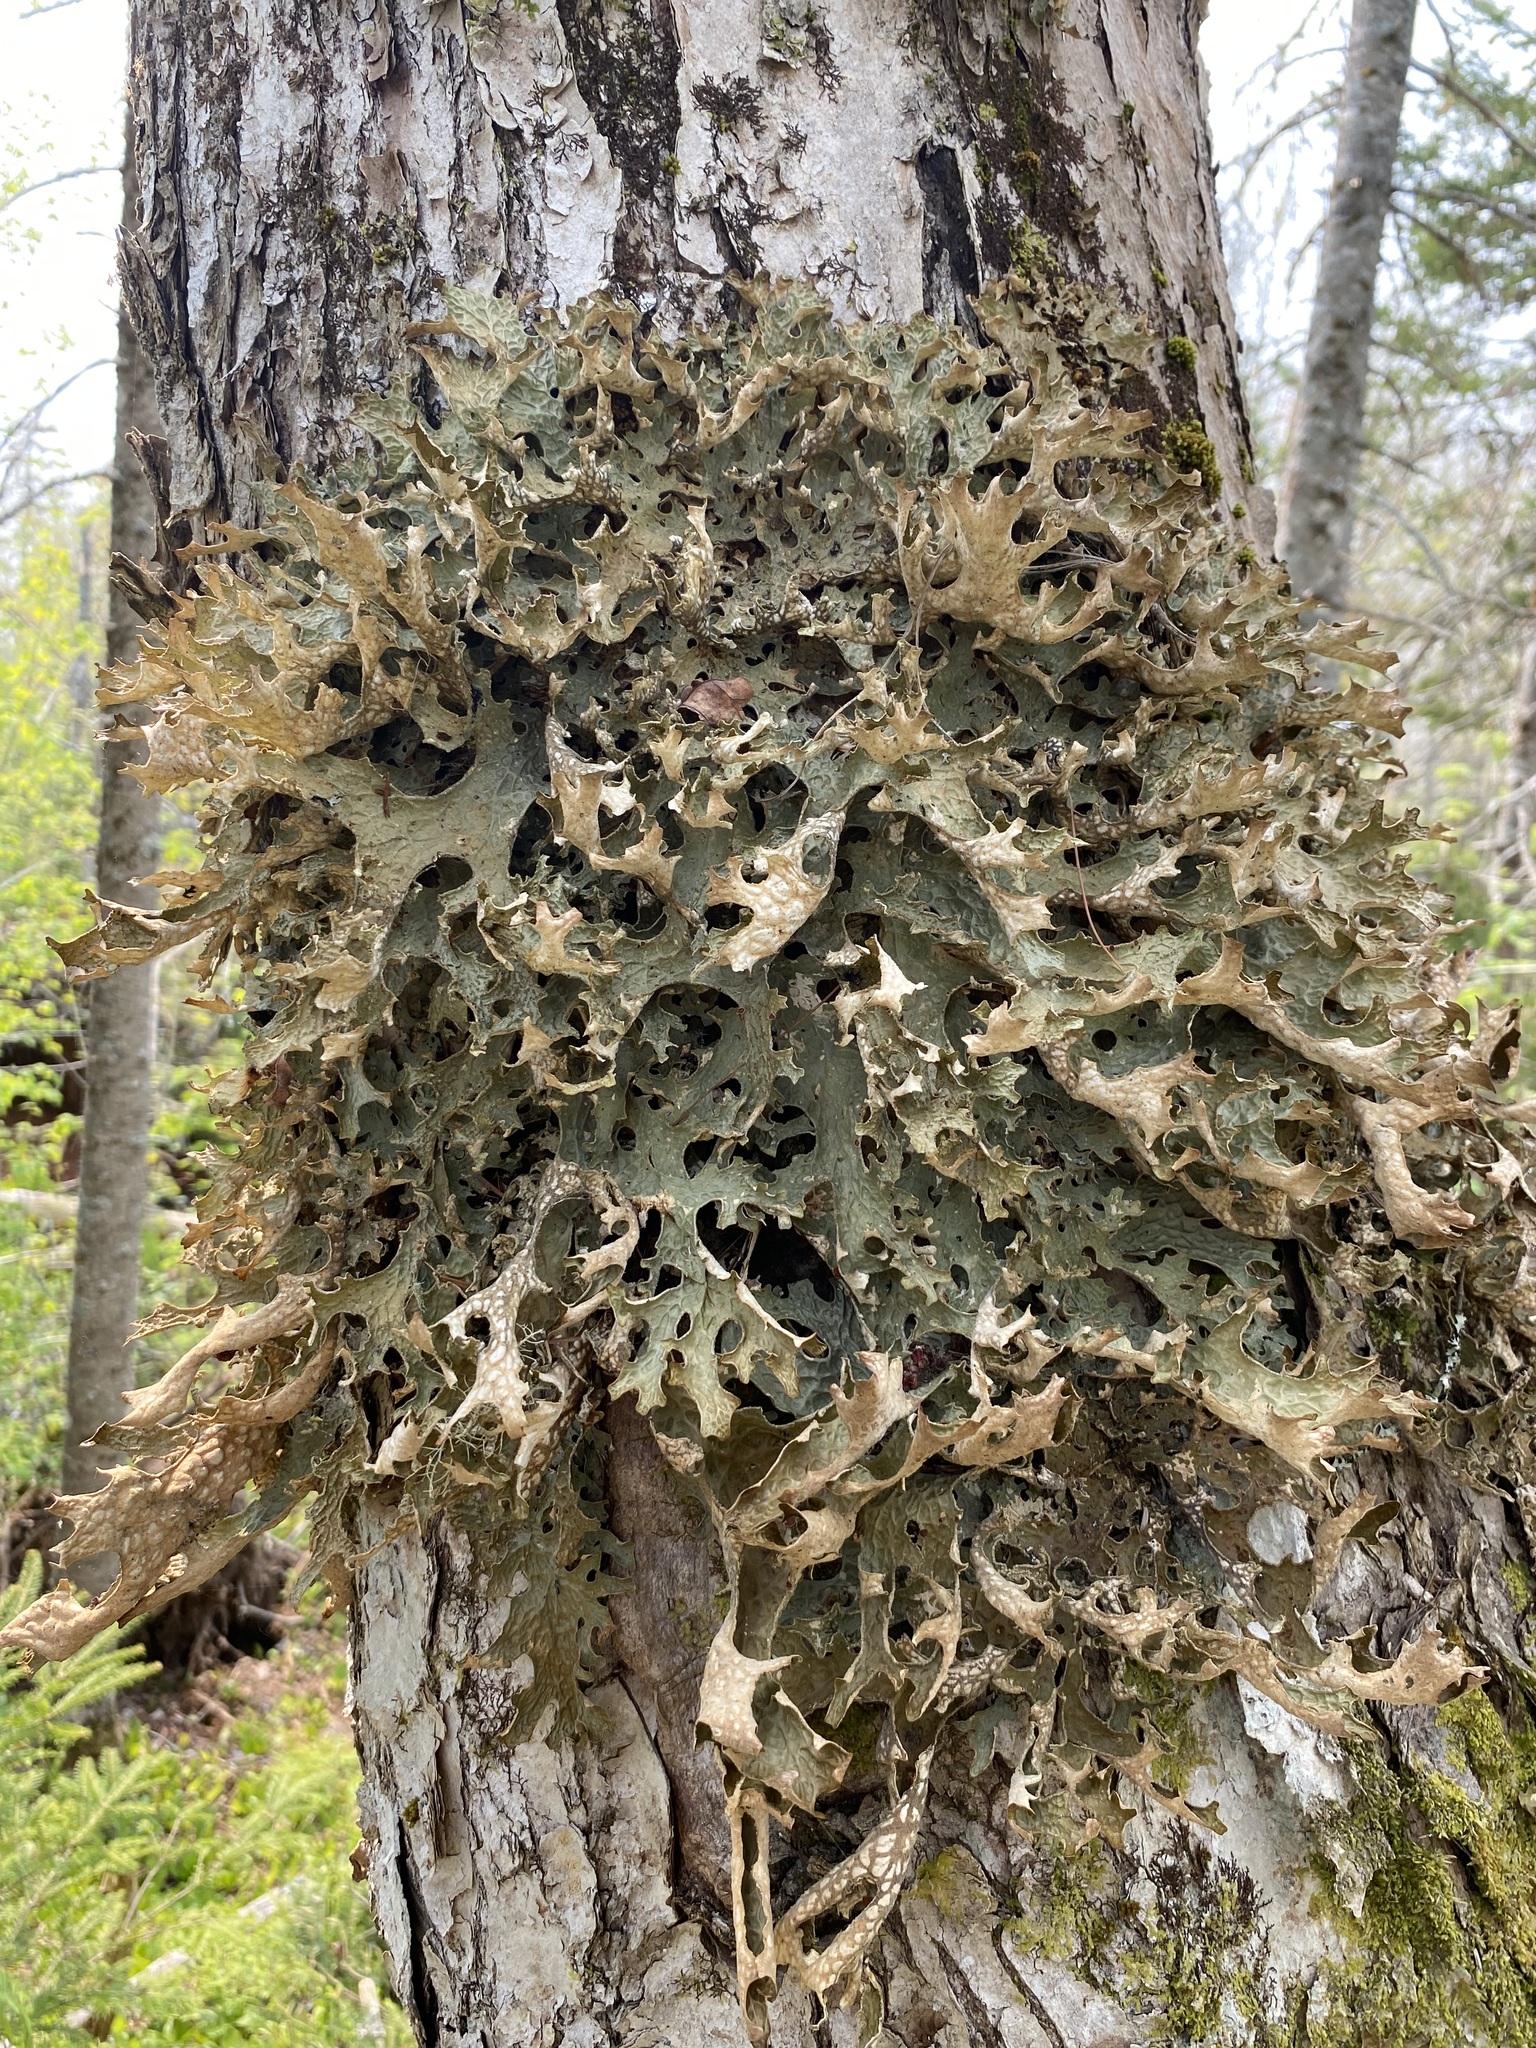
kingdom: Fungi
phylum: Ascomycota
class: Lecanoromycetes
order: Peltigerales
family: Lobariaceae
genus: Lobaria
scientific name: Lobaria pulmonaria
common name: Lungwort
